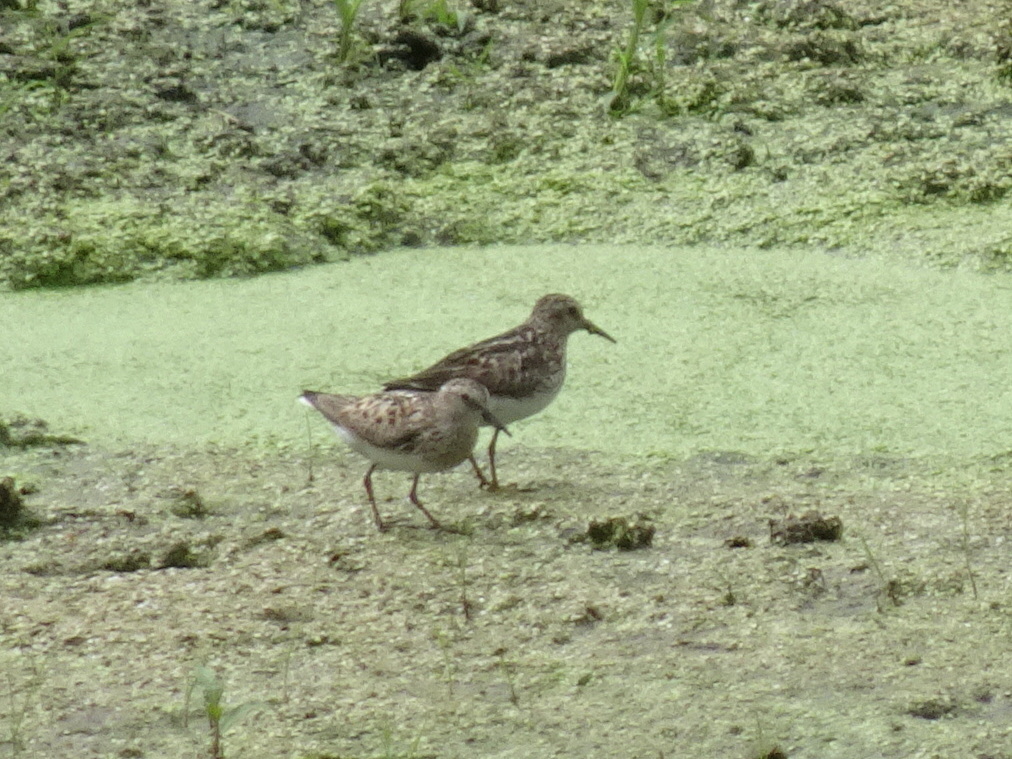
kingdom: Animalia
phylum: Chordata
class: Aves
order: Charadriiformes
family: Scolopacidae
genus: Calidris
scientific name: Calidris minutilla
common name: Least sandpiper
